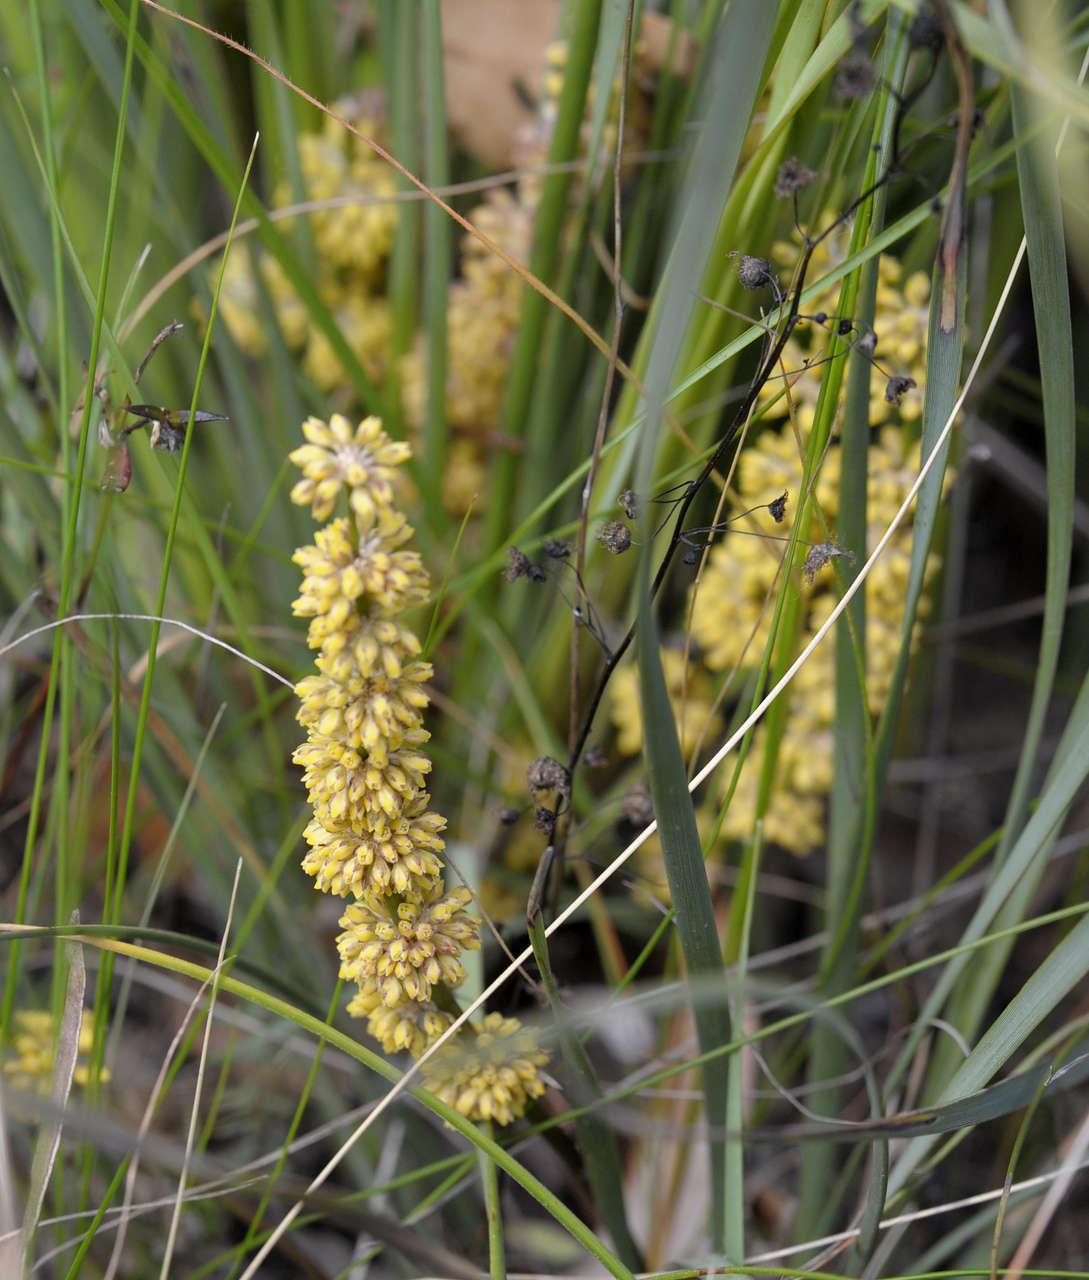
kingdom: Plantae
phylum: Tracheophyta
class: Liliopsida
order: Asparagales
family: Asparagaceae
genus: Lomandra
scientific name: Lomandra multiflora
